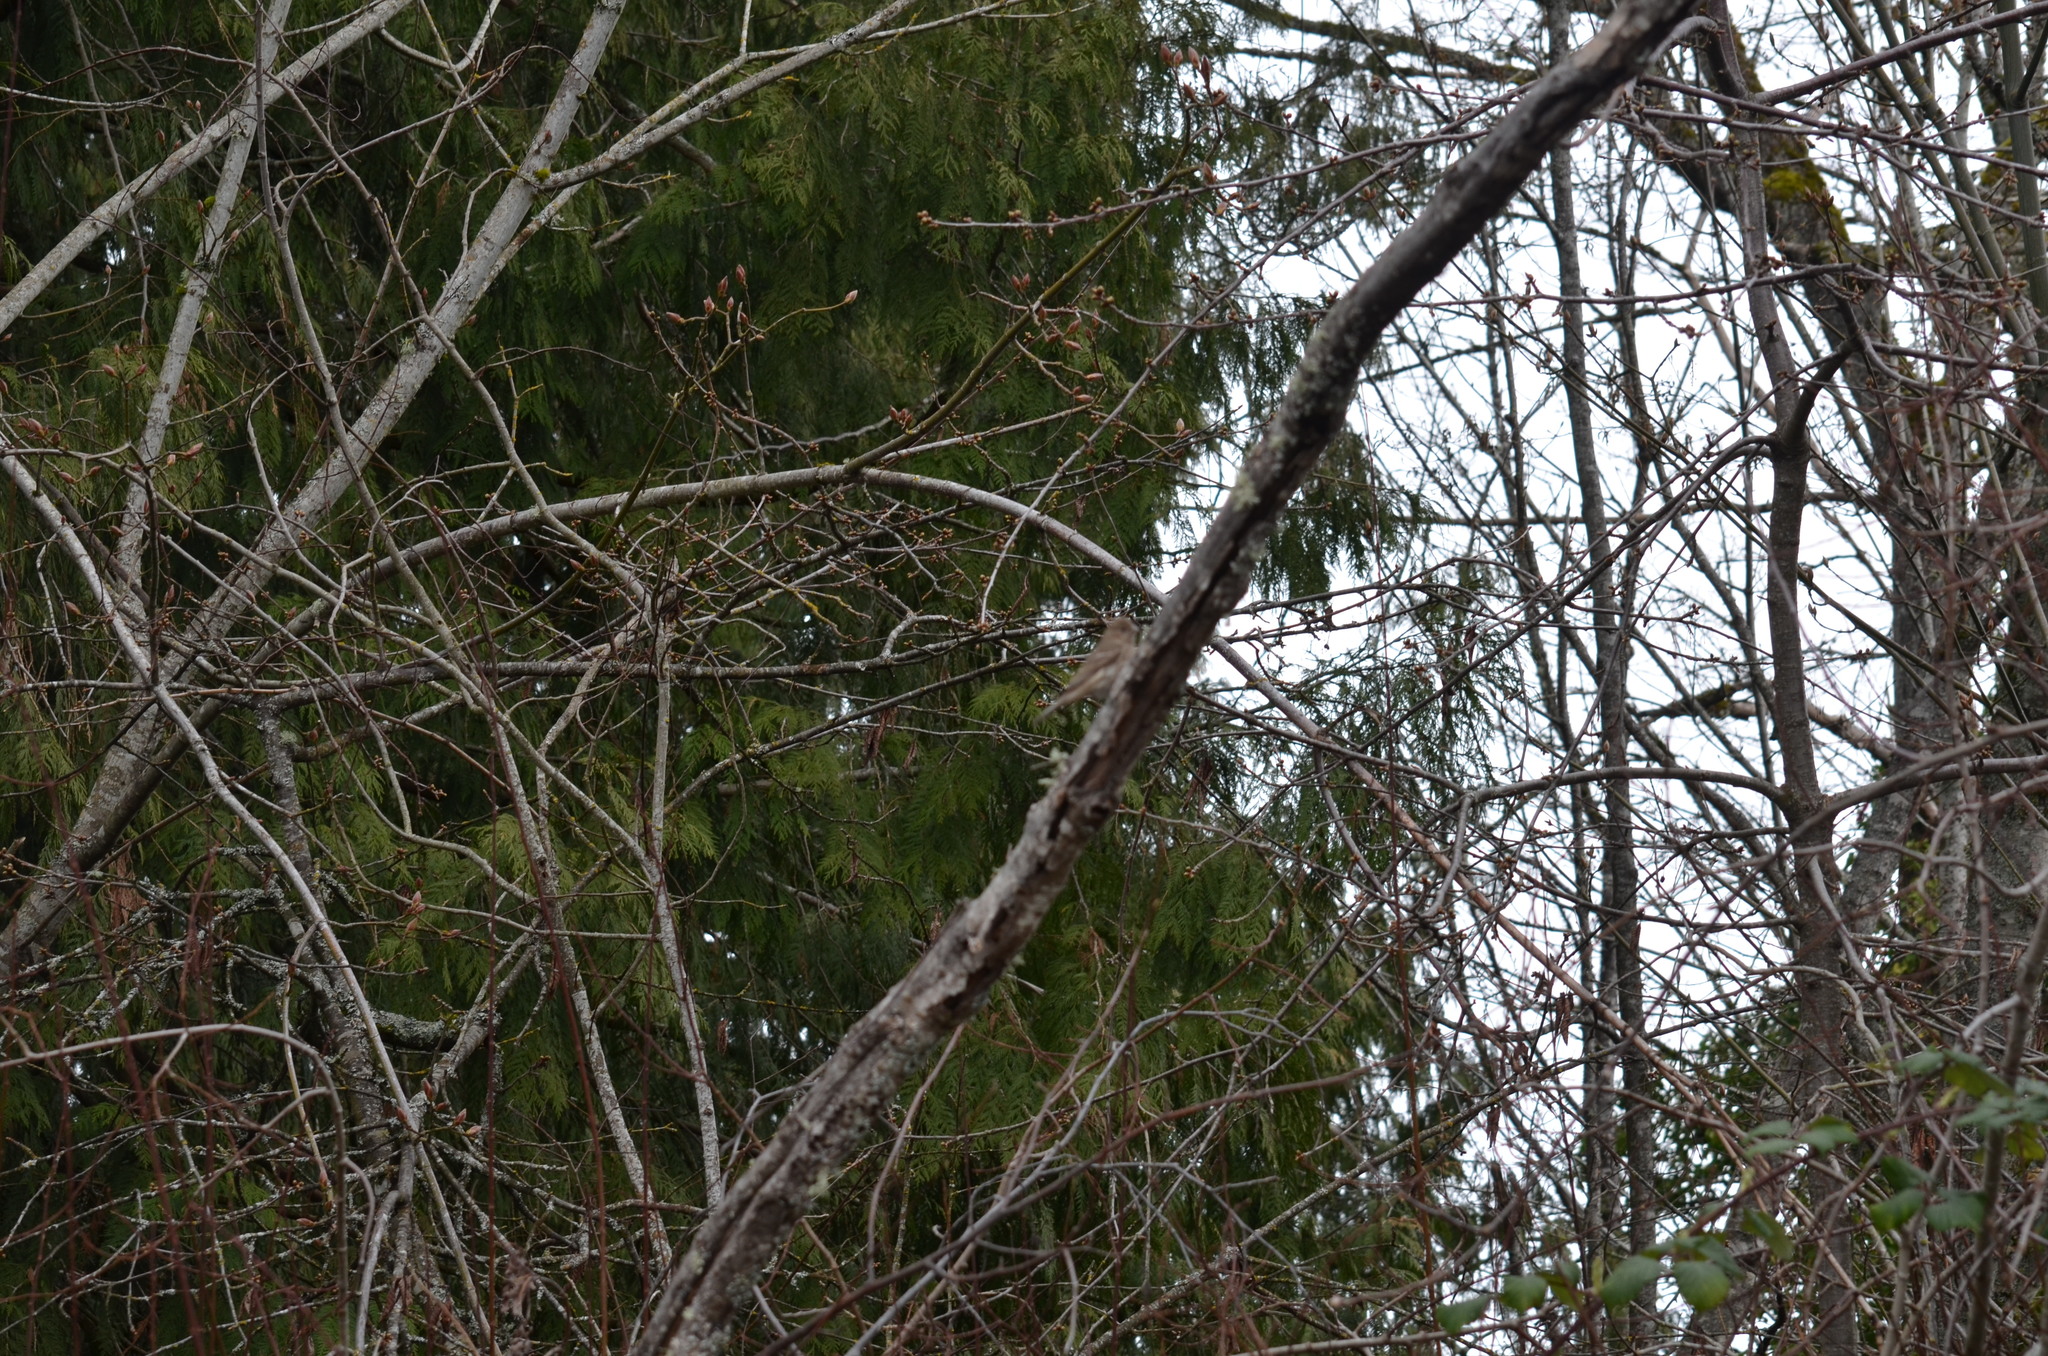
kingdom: Animalia
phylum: Chordata
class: Aves
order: Passeriformes
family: Fringillidae
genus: Haemorhous
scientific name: Haemorhous mexicanus
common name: House finch
